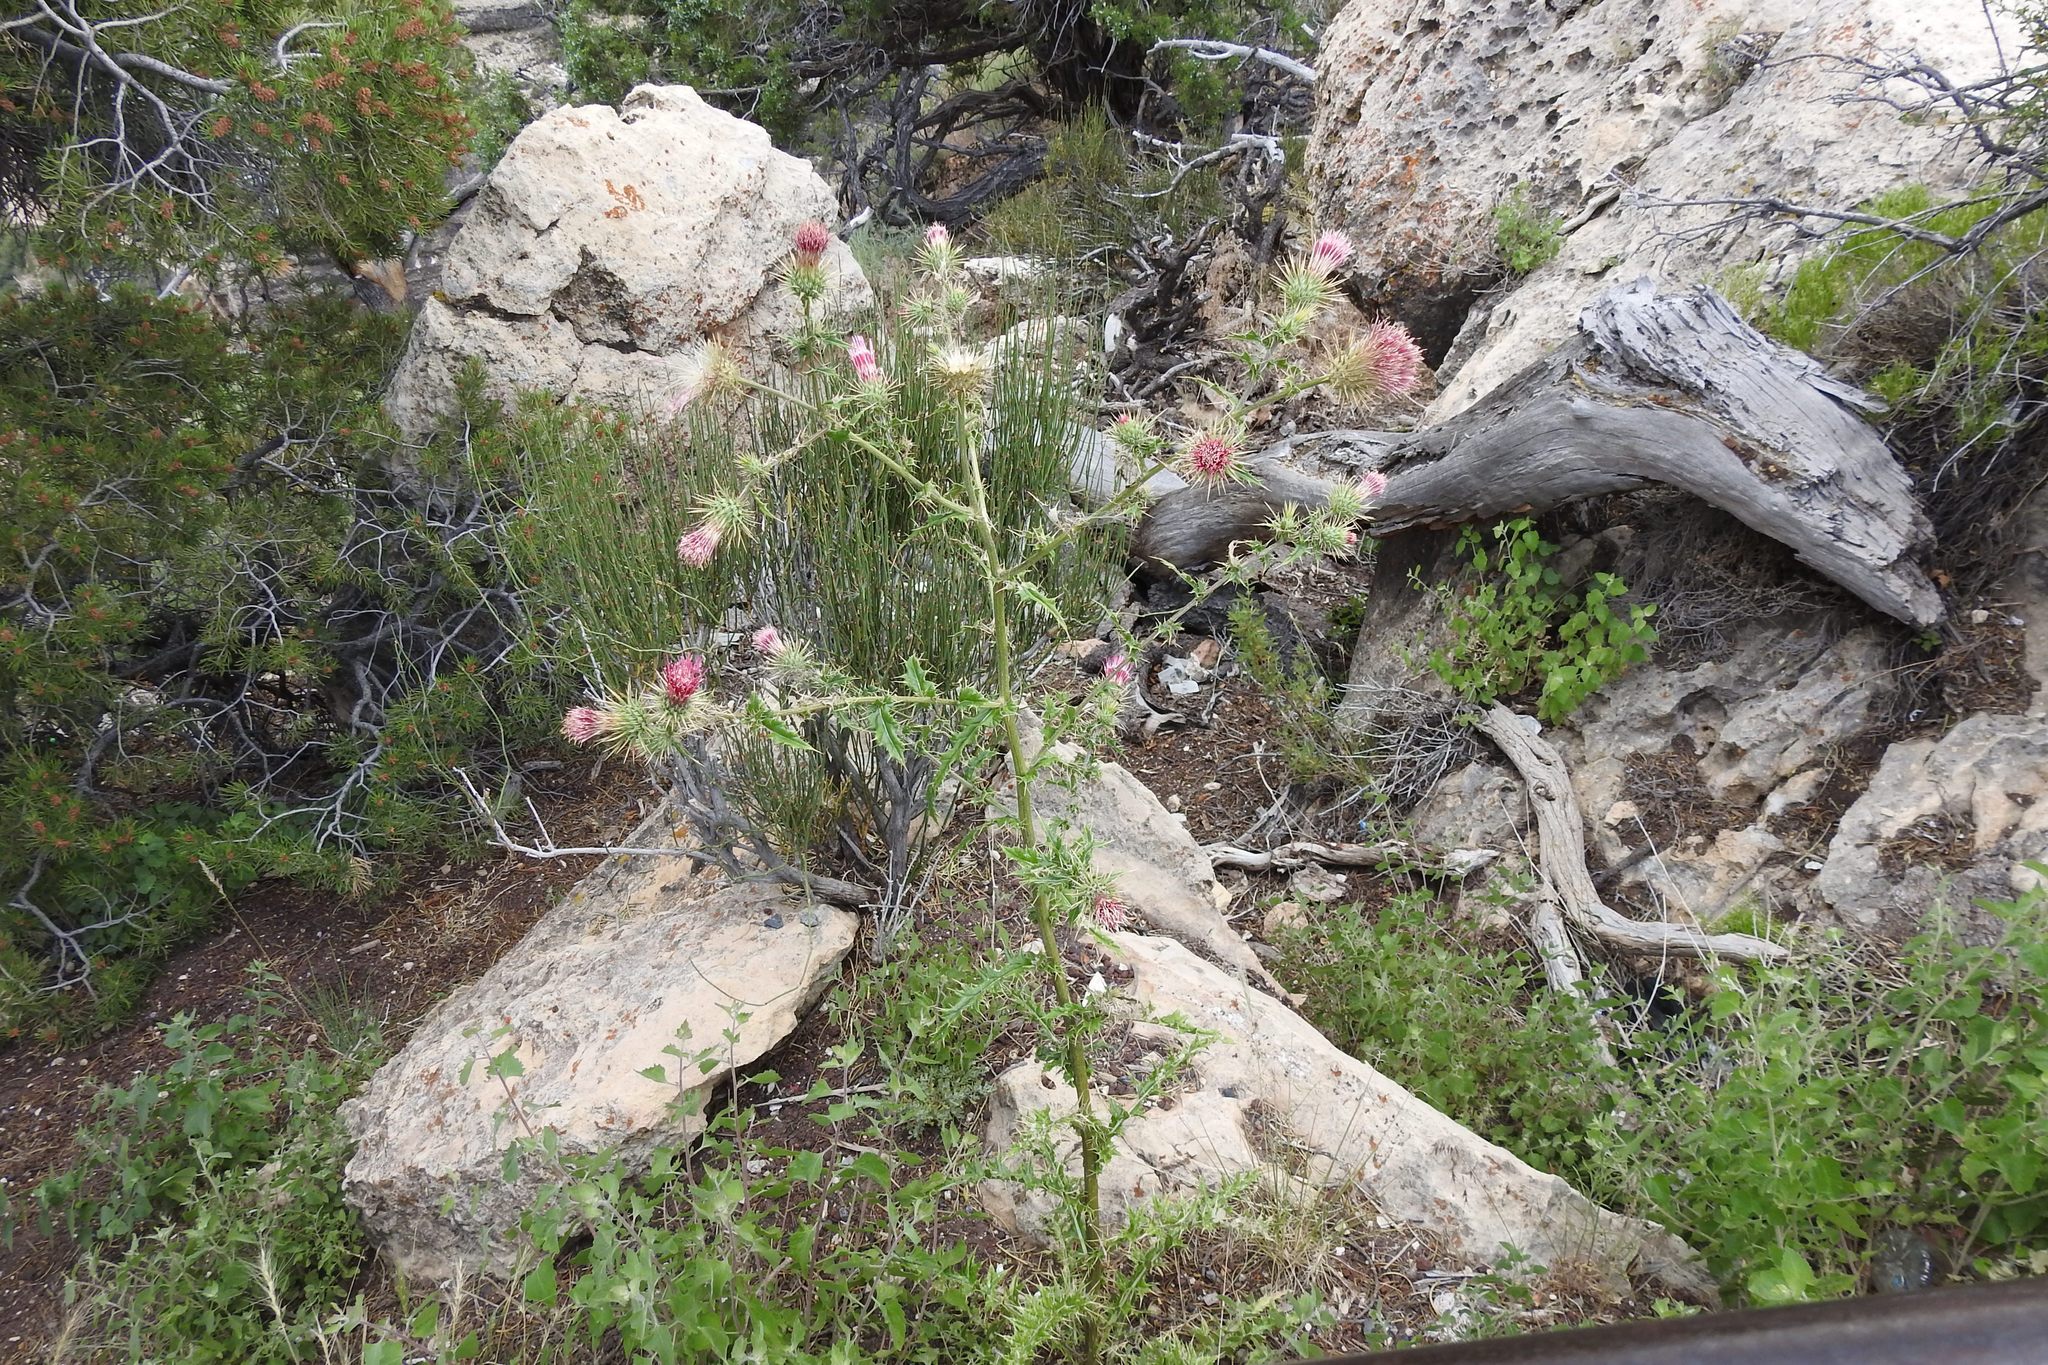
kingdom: Plantae
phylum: Tracheophyta
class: Magnoliopsida
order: Asterales
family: Asteraceae
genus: Cirsium
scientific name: Cirsium arizonicum
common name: Arizona thistle
